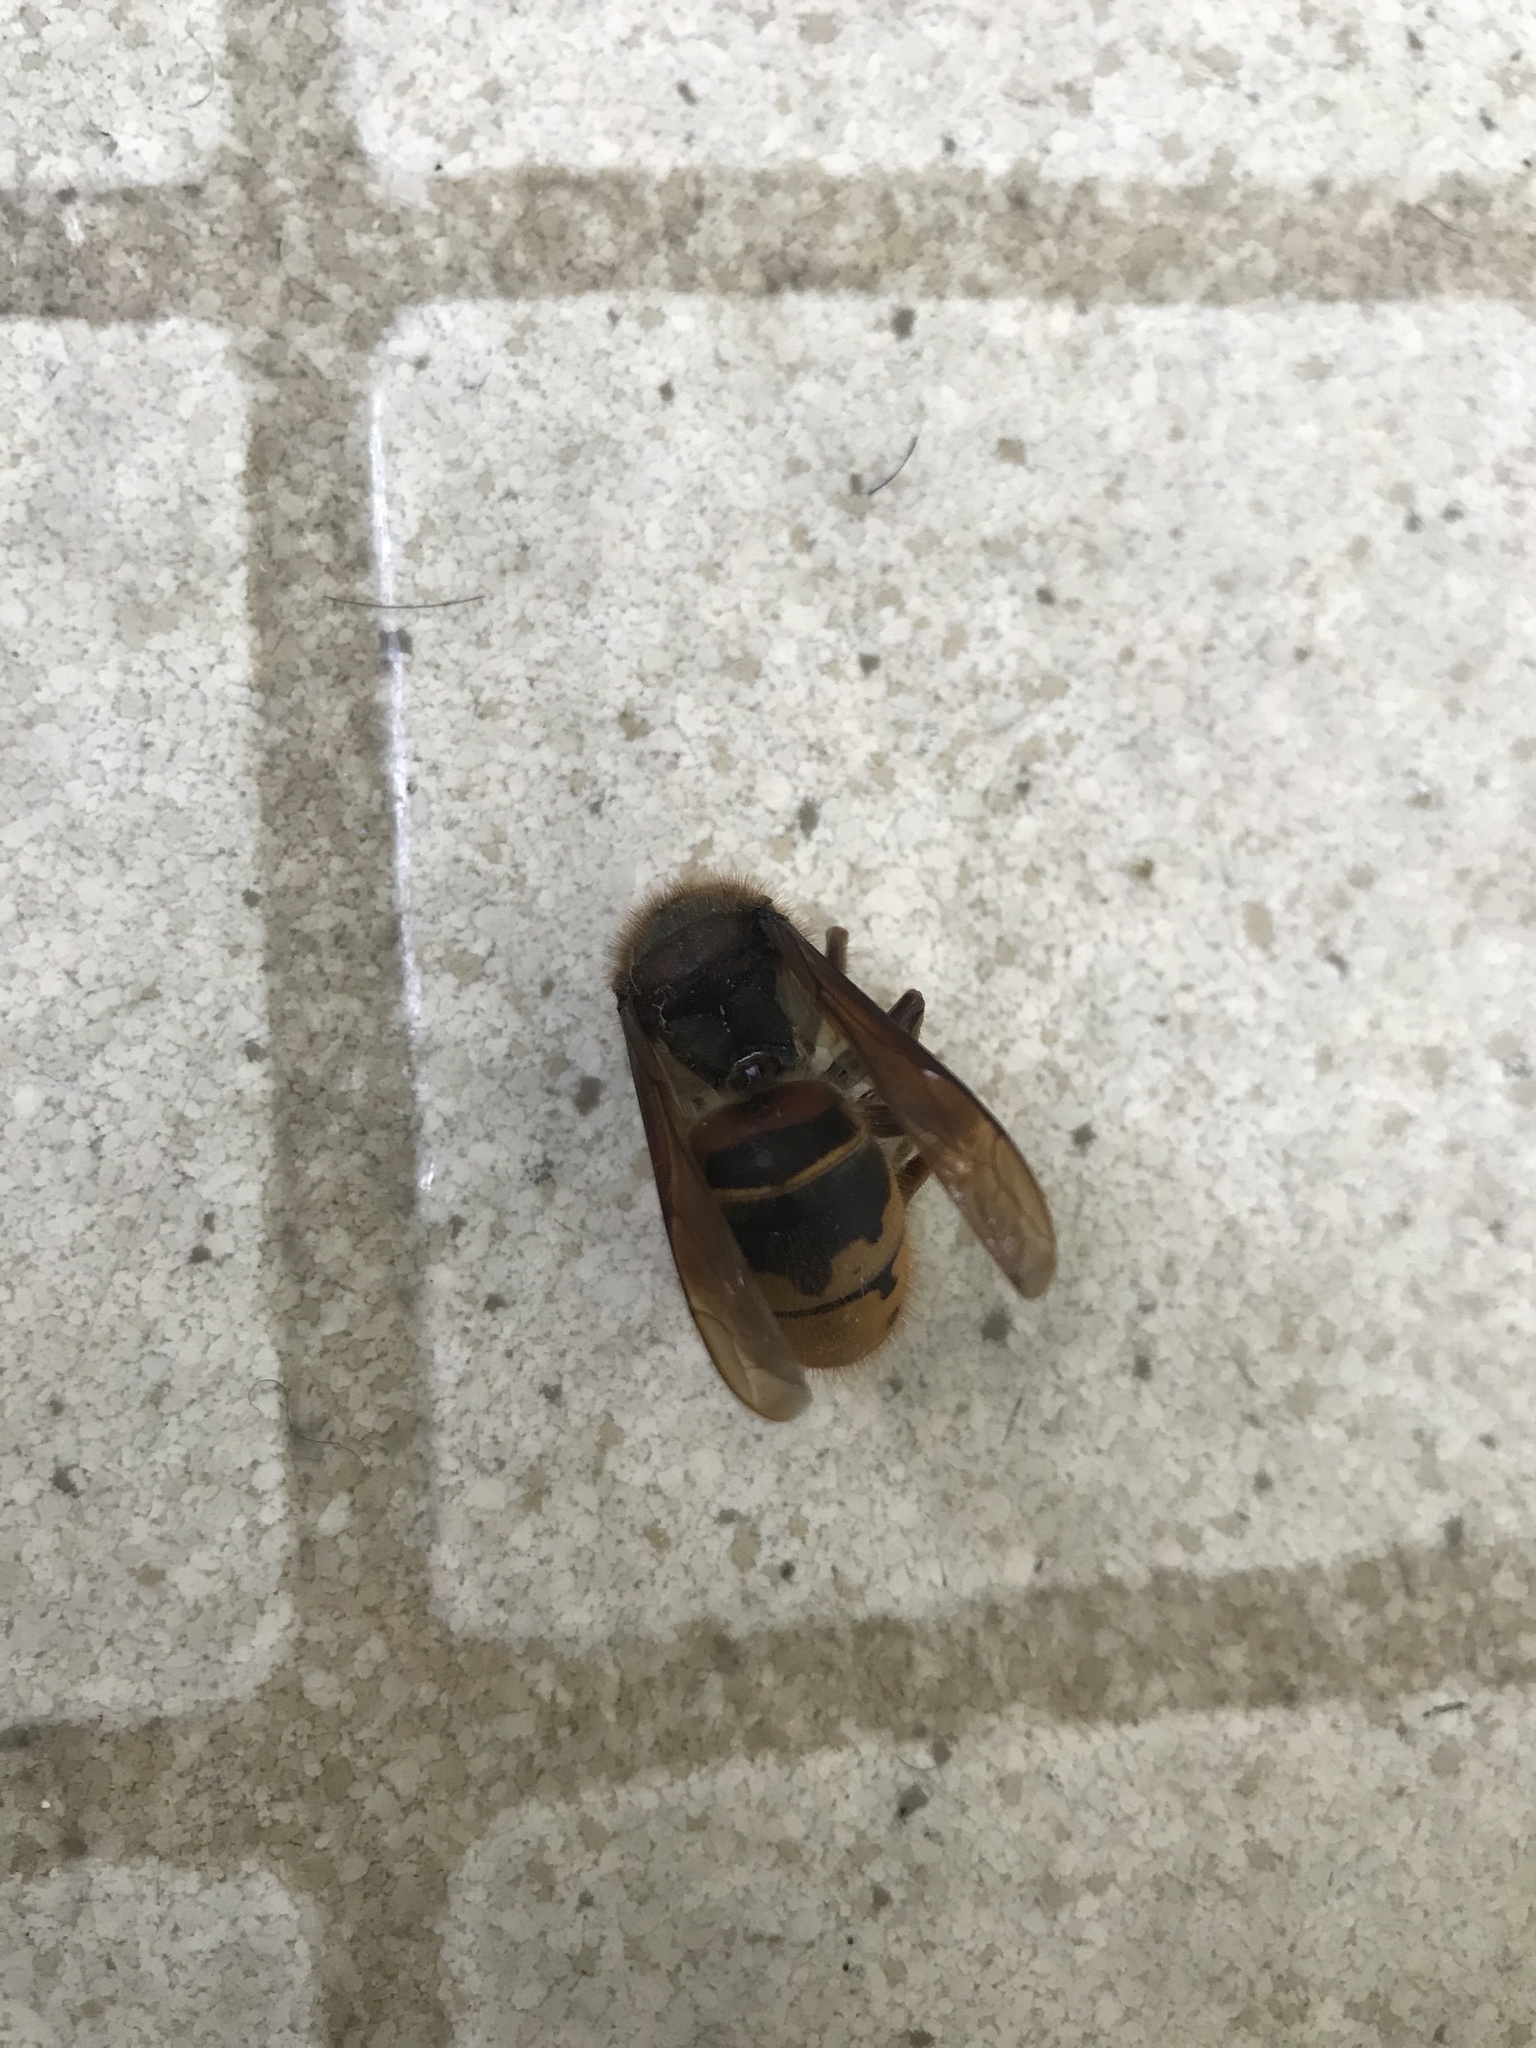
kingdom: Animalia
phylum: Arthropoda
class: Insecta
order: Hymenoptera
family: Vespidae
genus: Vespa
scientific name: Vespa crabro
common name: Hornet
